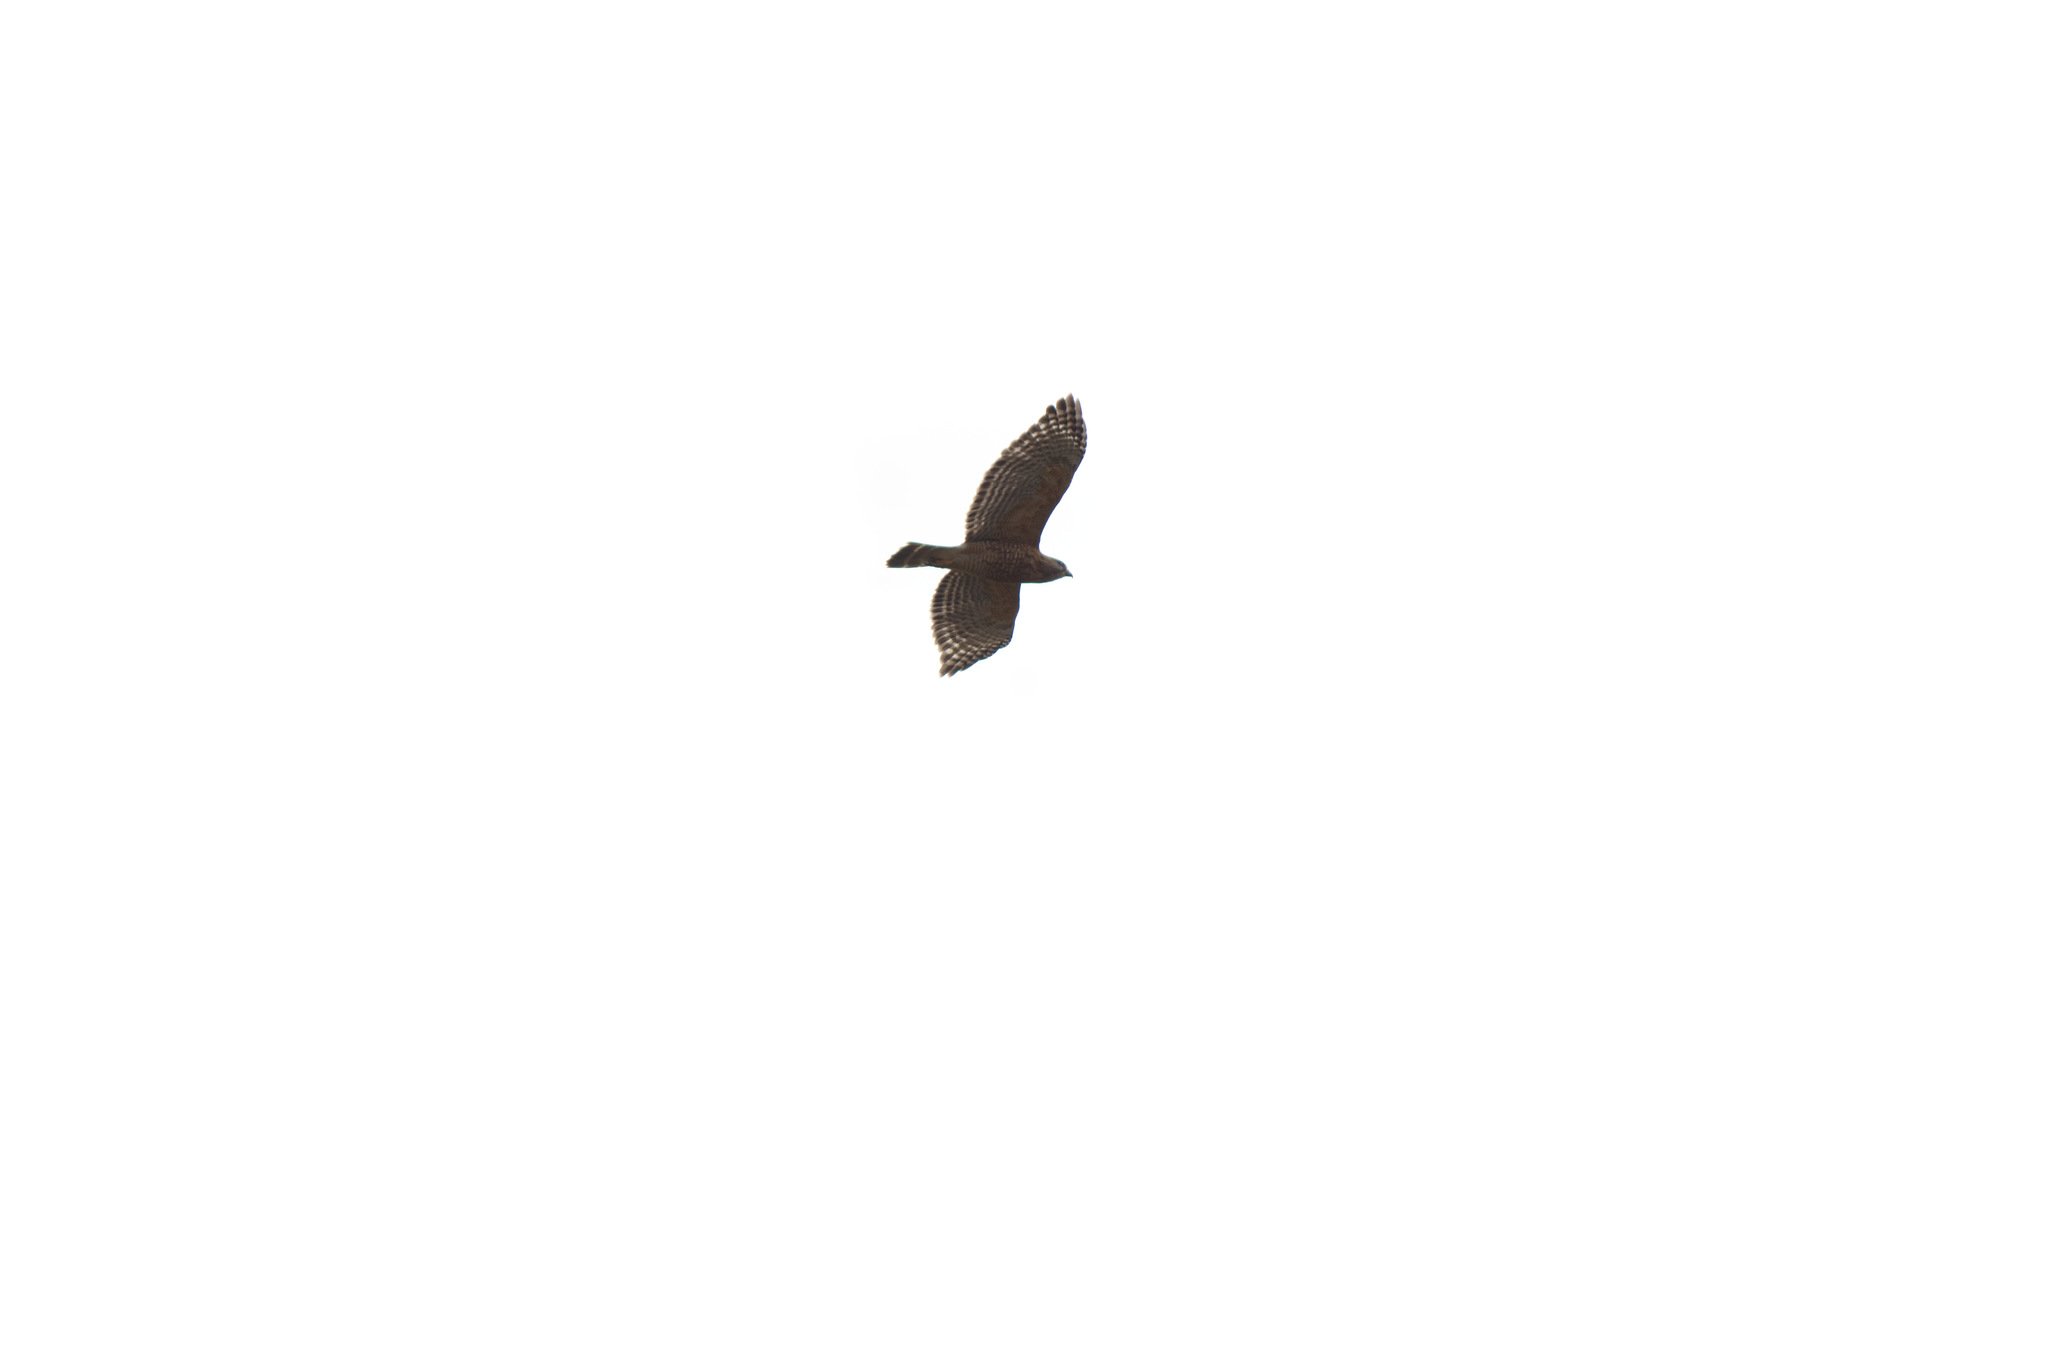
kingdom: Animalia
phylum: Chordata
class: Aves
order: Accipitriformes
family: Accipitridae
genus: Buteo
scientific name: Buteo lineatus
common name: Red-shouldered hawk
